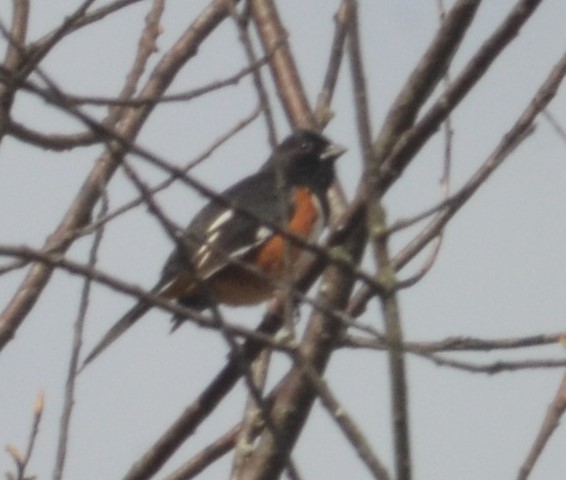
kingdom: Animalia
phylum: Chordata
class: Aves
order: Passeriformes
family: Passerellidae
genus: Pipilo
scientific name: Pipilo erythrophthalmus
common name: Eastern towhee
